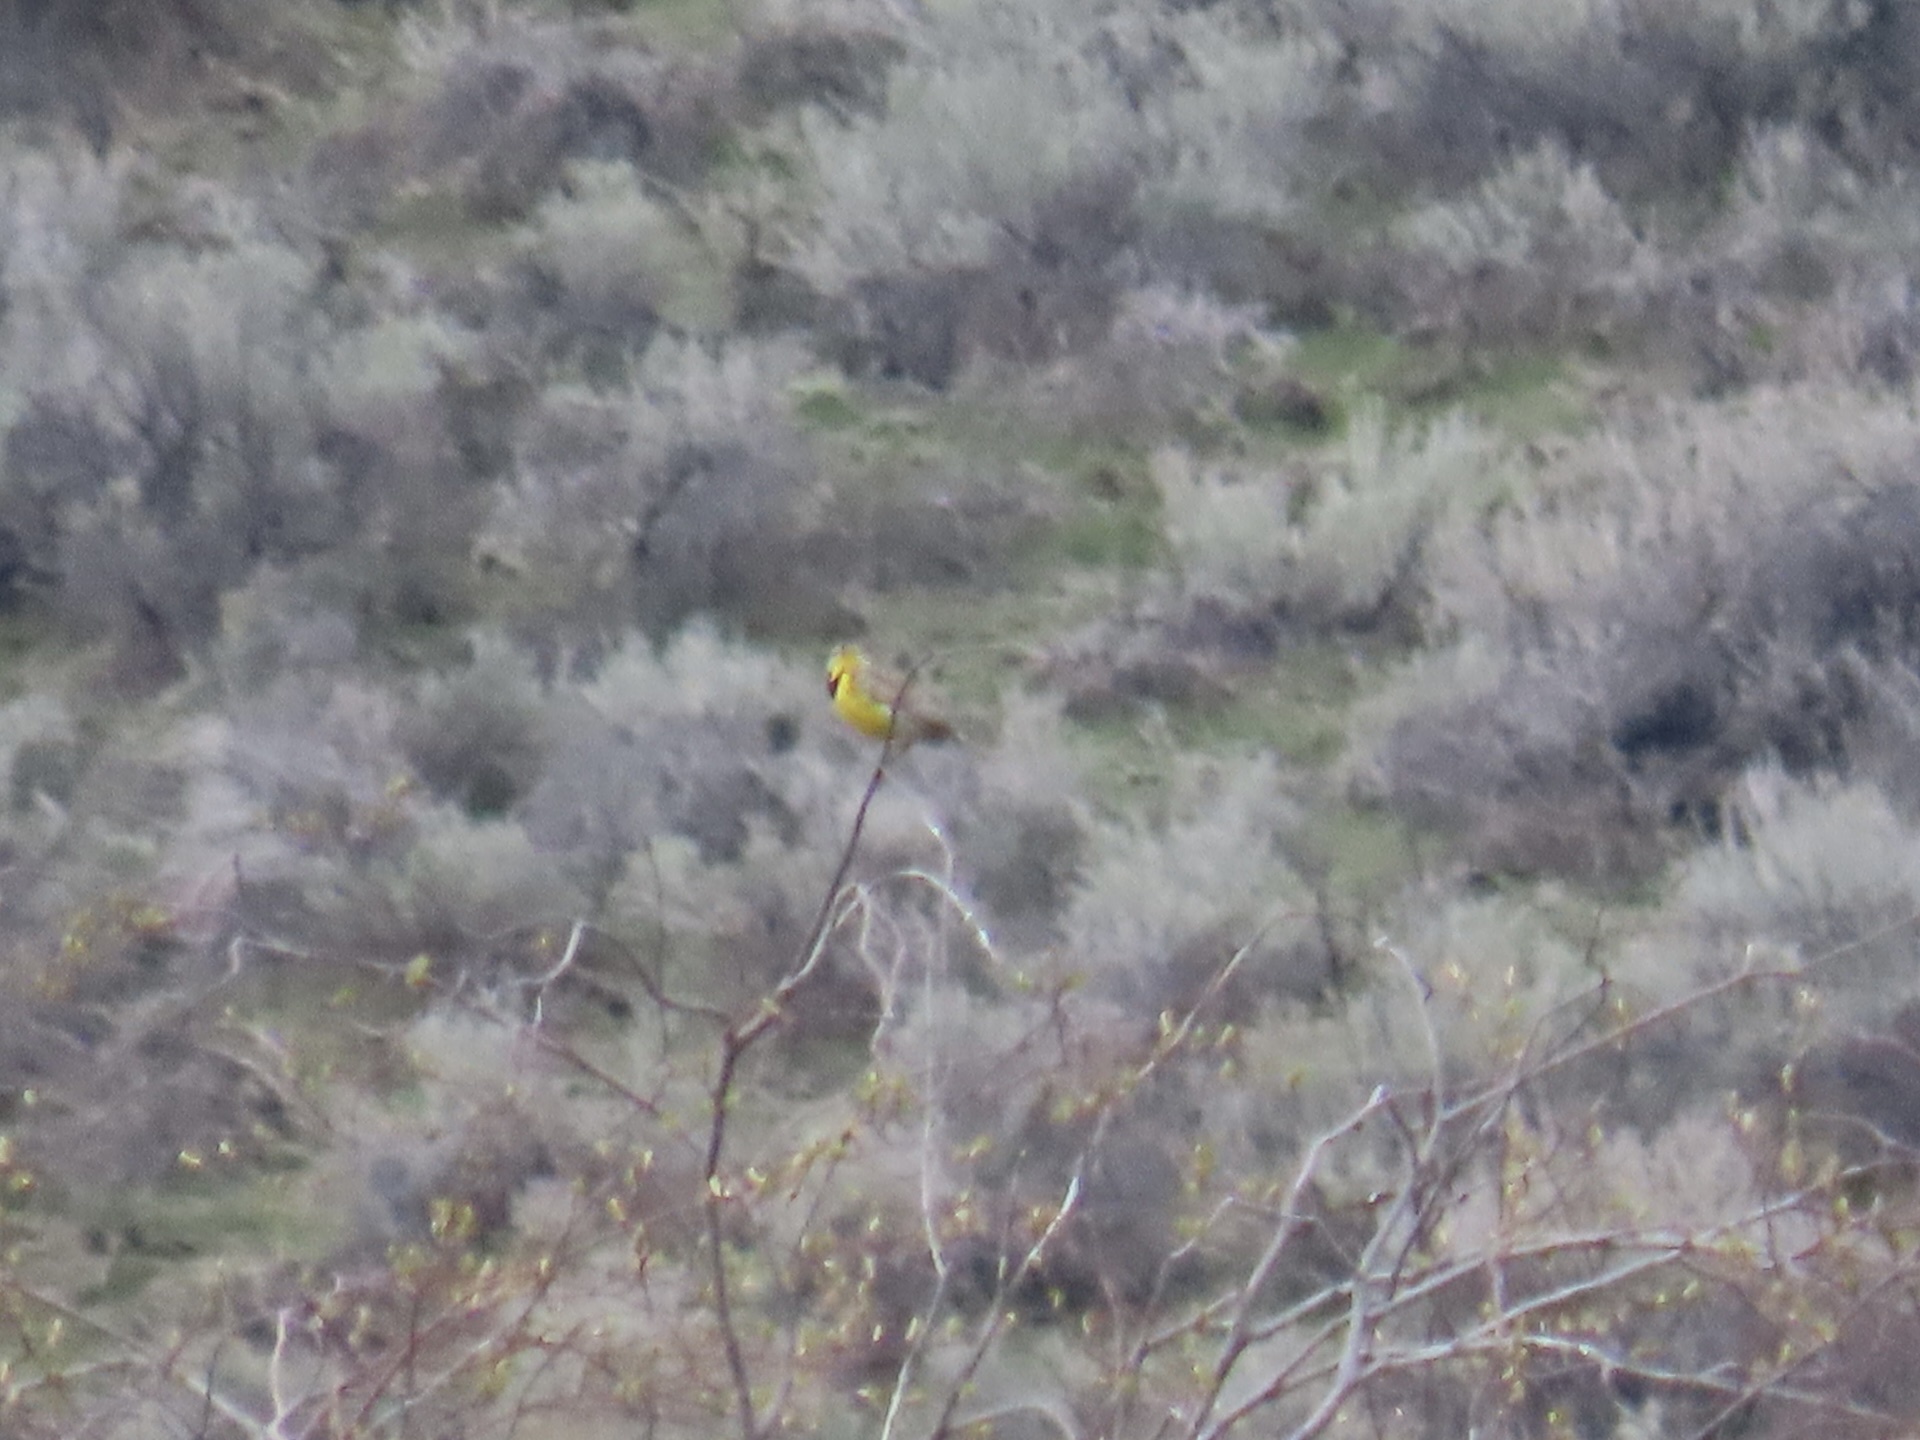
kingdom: Animalia
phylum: Chordata
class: Aves
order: Passeriformes
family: Icteridae
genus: Sturnella
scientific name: Sturnella neglecta
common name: Western meadowlark
